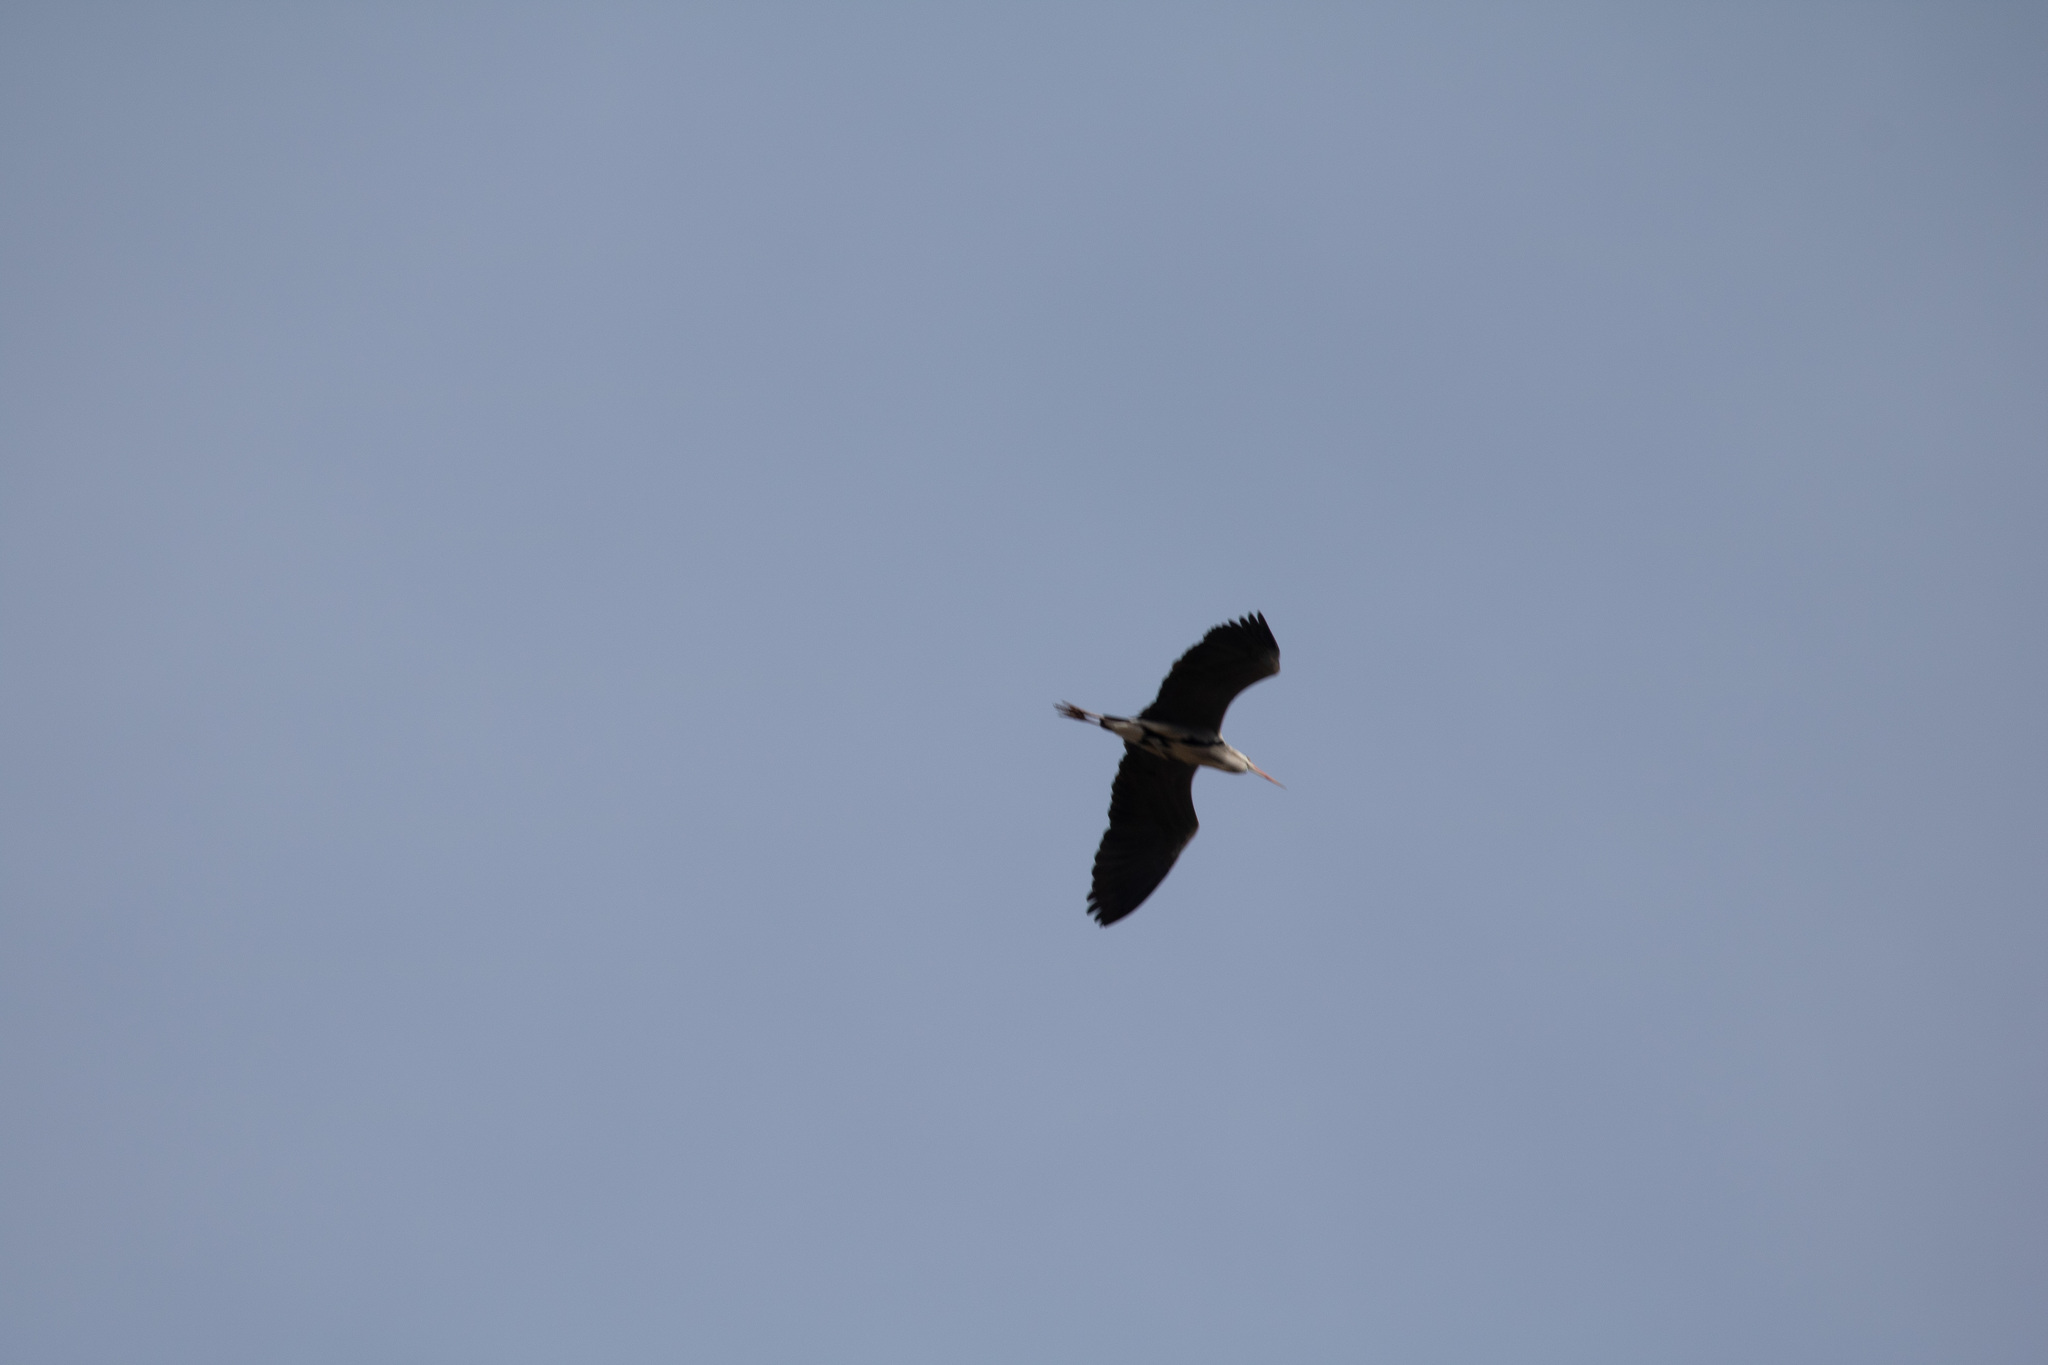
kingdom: Animalia
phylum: Chordata
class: Aves
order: Pelecaniformes
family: Ardeidae
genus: Ardea
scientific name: Ardea cinerea
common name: Grey heron
